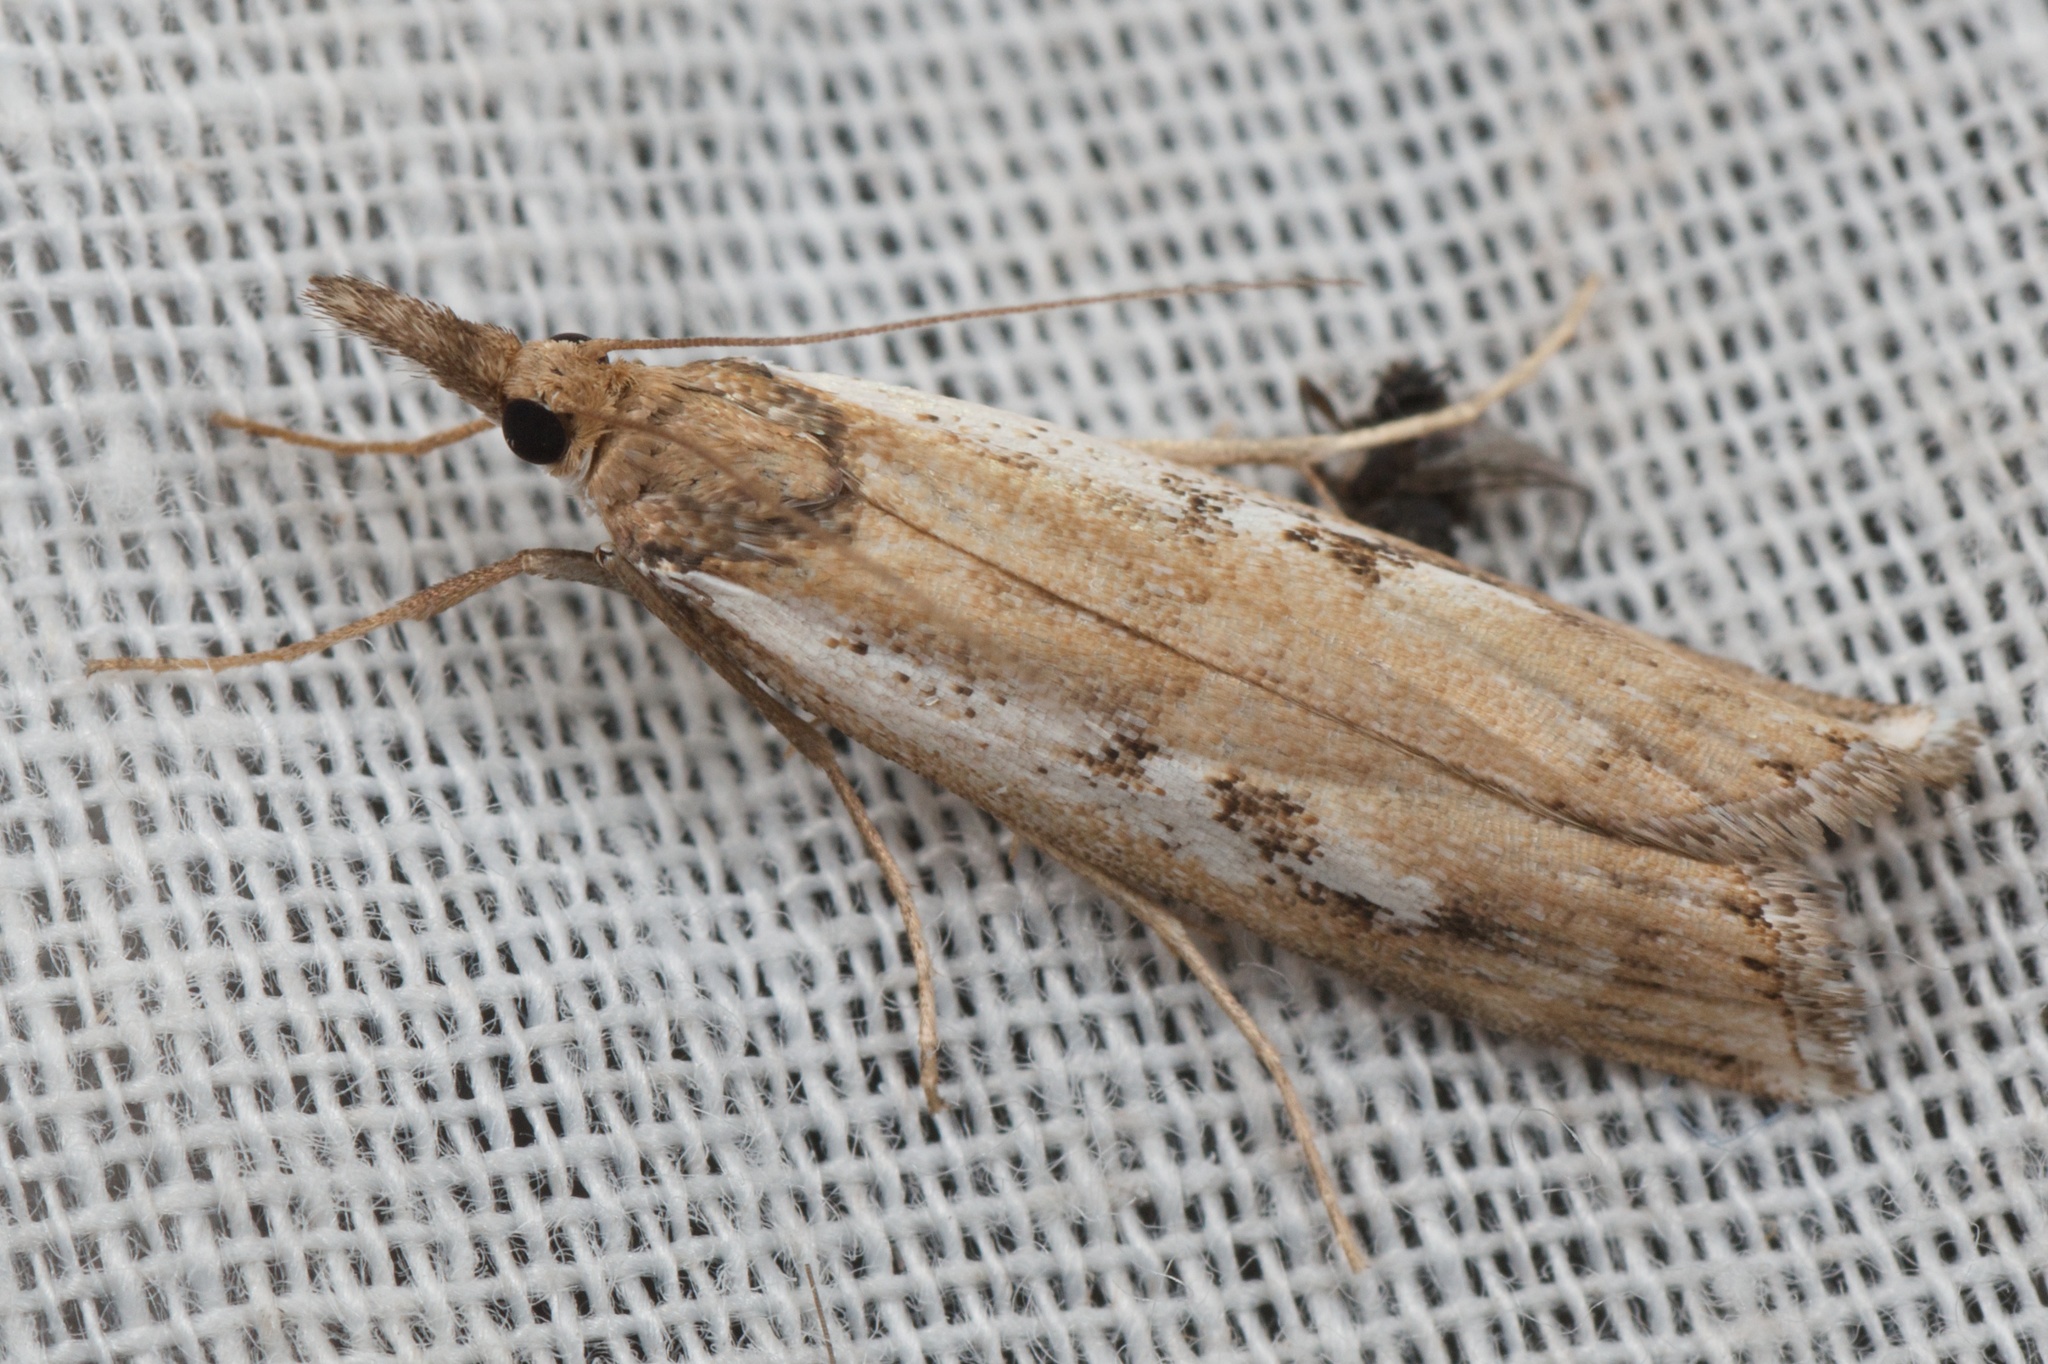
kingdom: Animalia
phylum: Arthropoda
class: Insecta
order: Lepidoptera
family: Crambidae
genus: Orocrambus
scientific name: Orocrambus vulgaris
